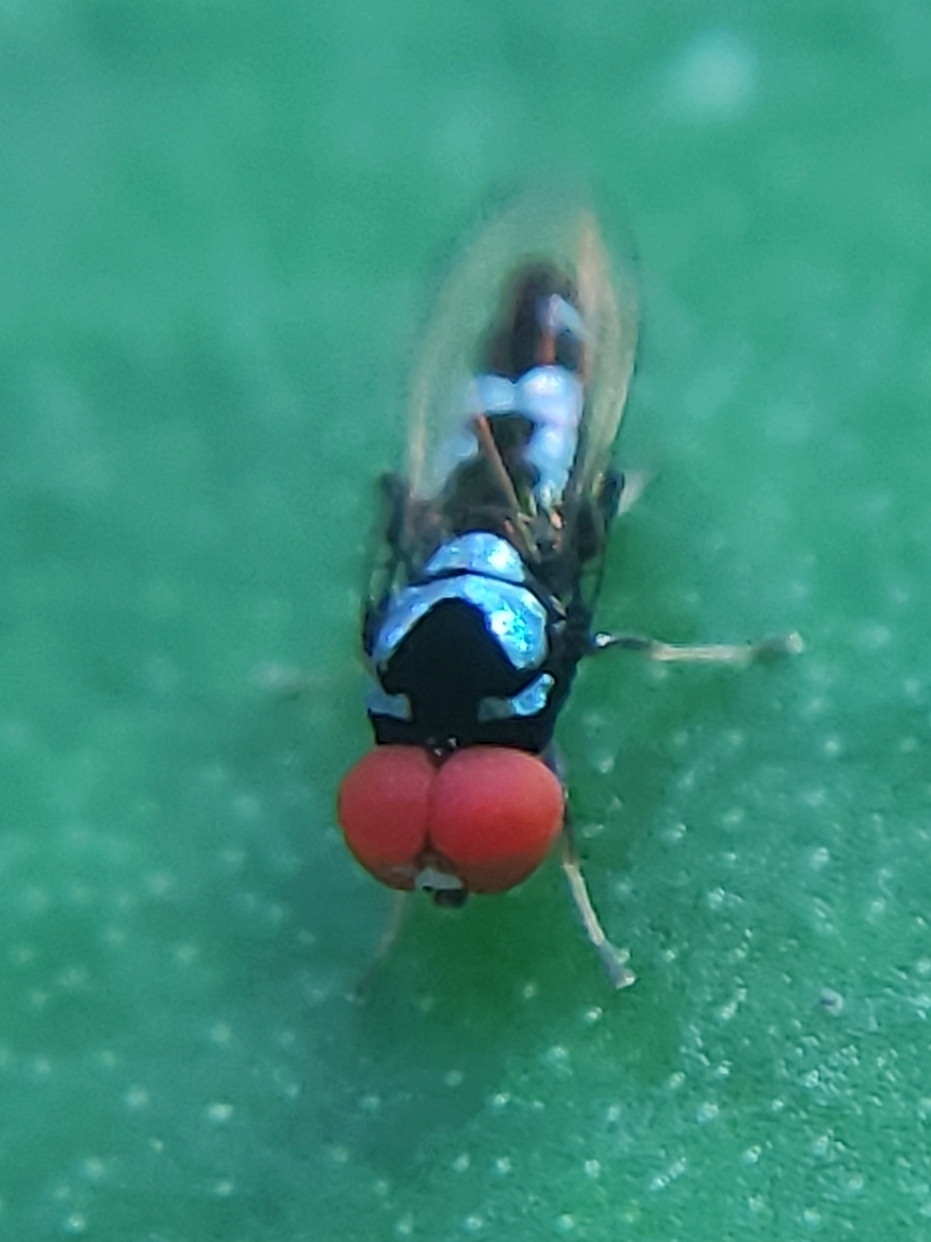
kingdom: Animalia
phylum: Arthropoda
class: Insecta
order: Diptera
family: Platypezidae
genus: Bertamyia
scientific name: Bertamyia notata
